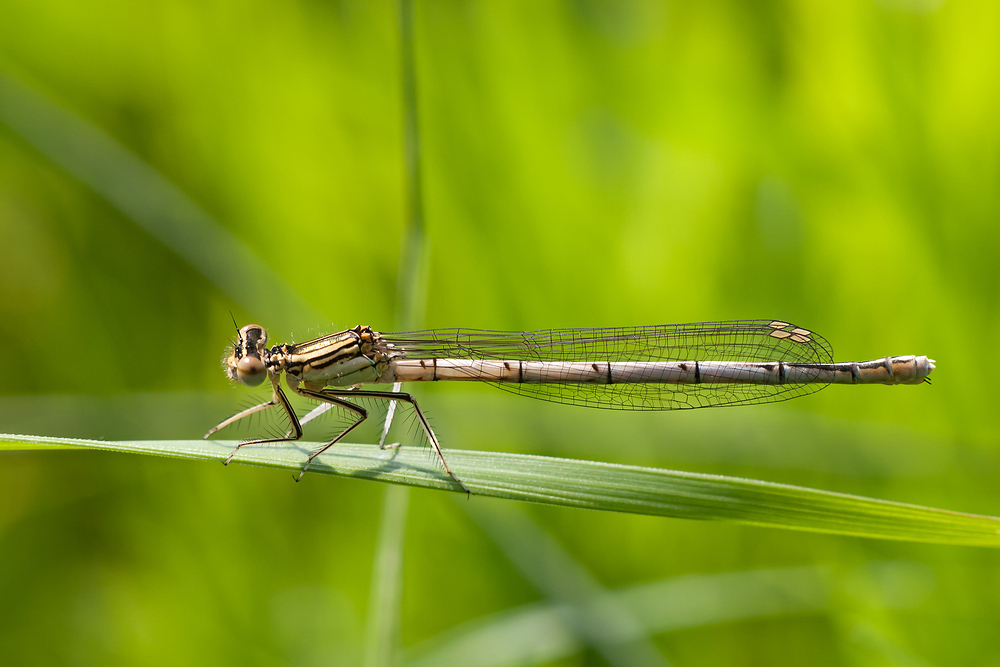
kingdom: Animalia
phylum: Arthropoda
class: Insecta
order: Odonata
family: Platycnemididae
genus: Platycnemis
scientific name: Platycnemis pennipes
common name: White-legged damselfly
